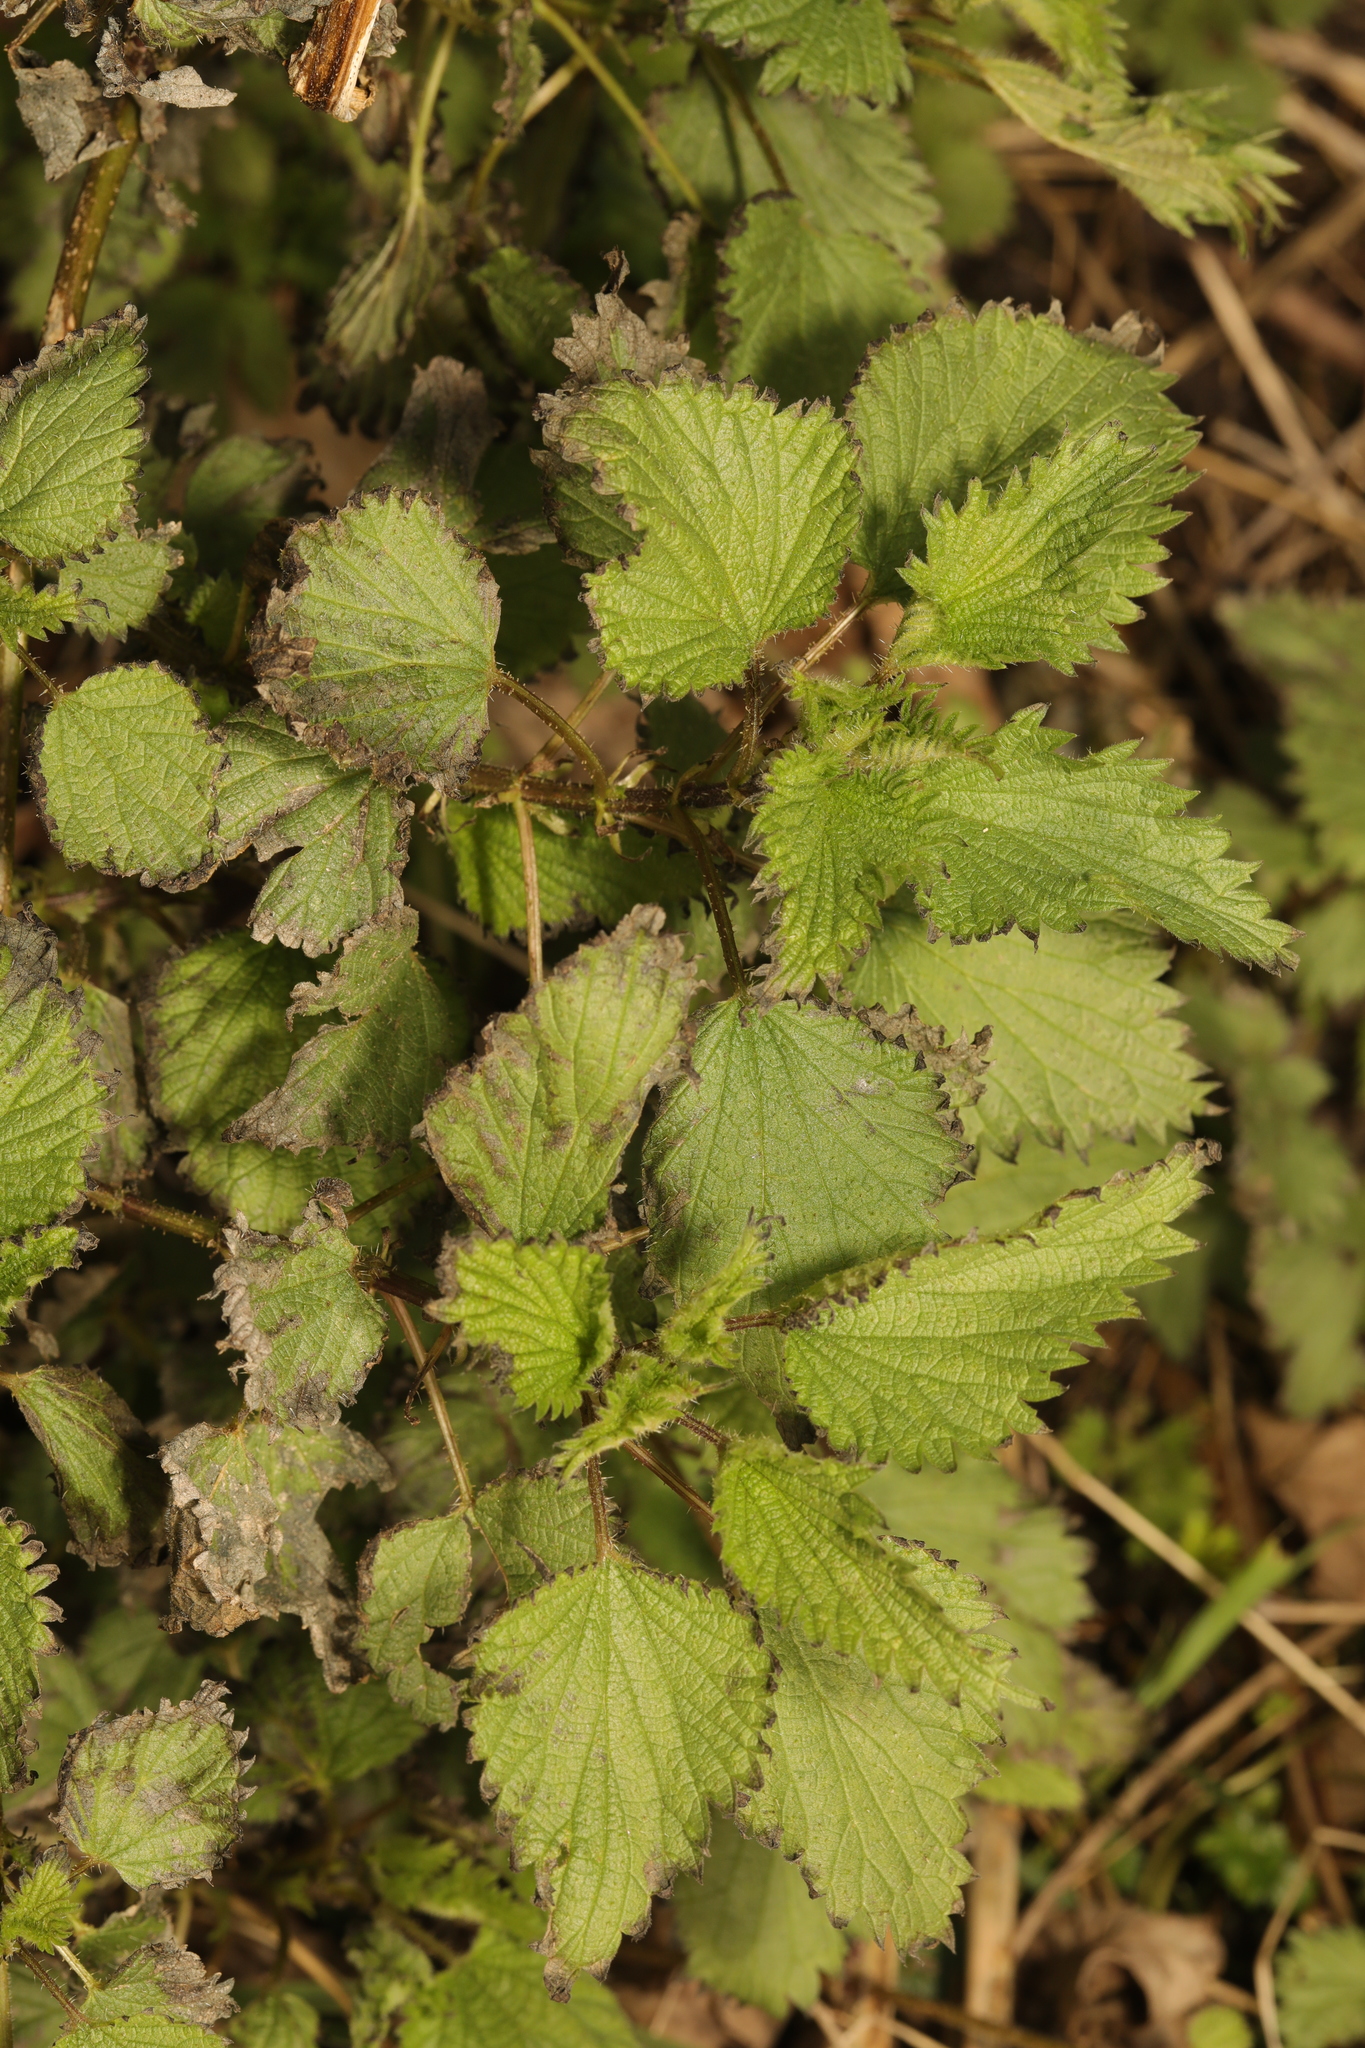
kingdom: Plantae
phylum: Tracheophyta
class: Magnoliopsida
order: Rosales
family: Urticaceae
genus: Urtica
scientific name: Urtica dioica
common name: Common nettle
